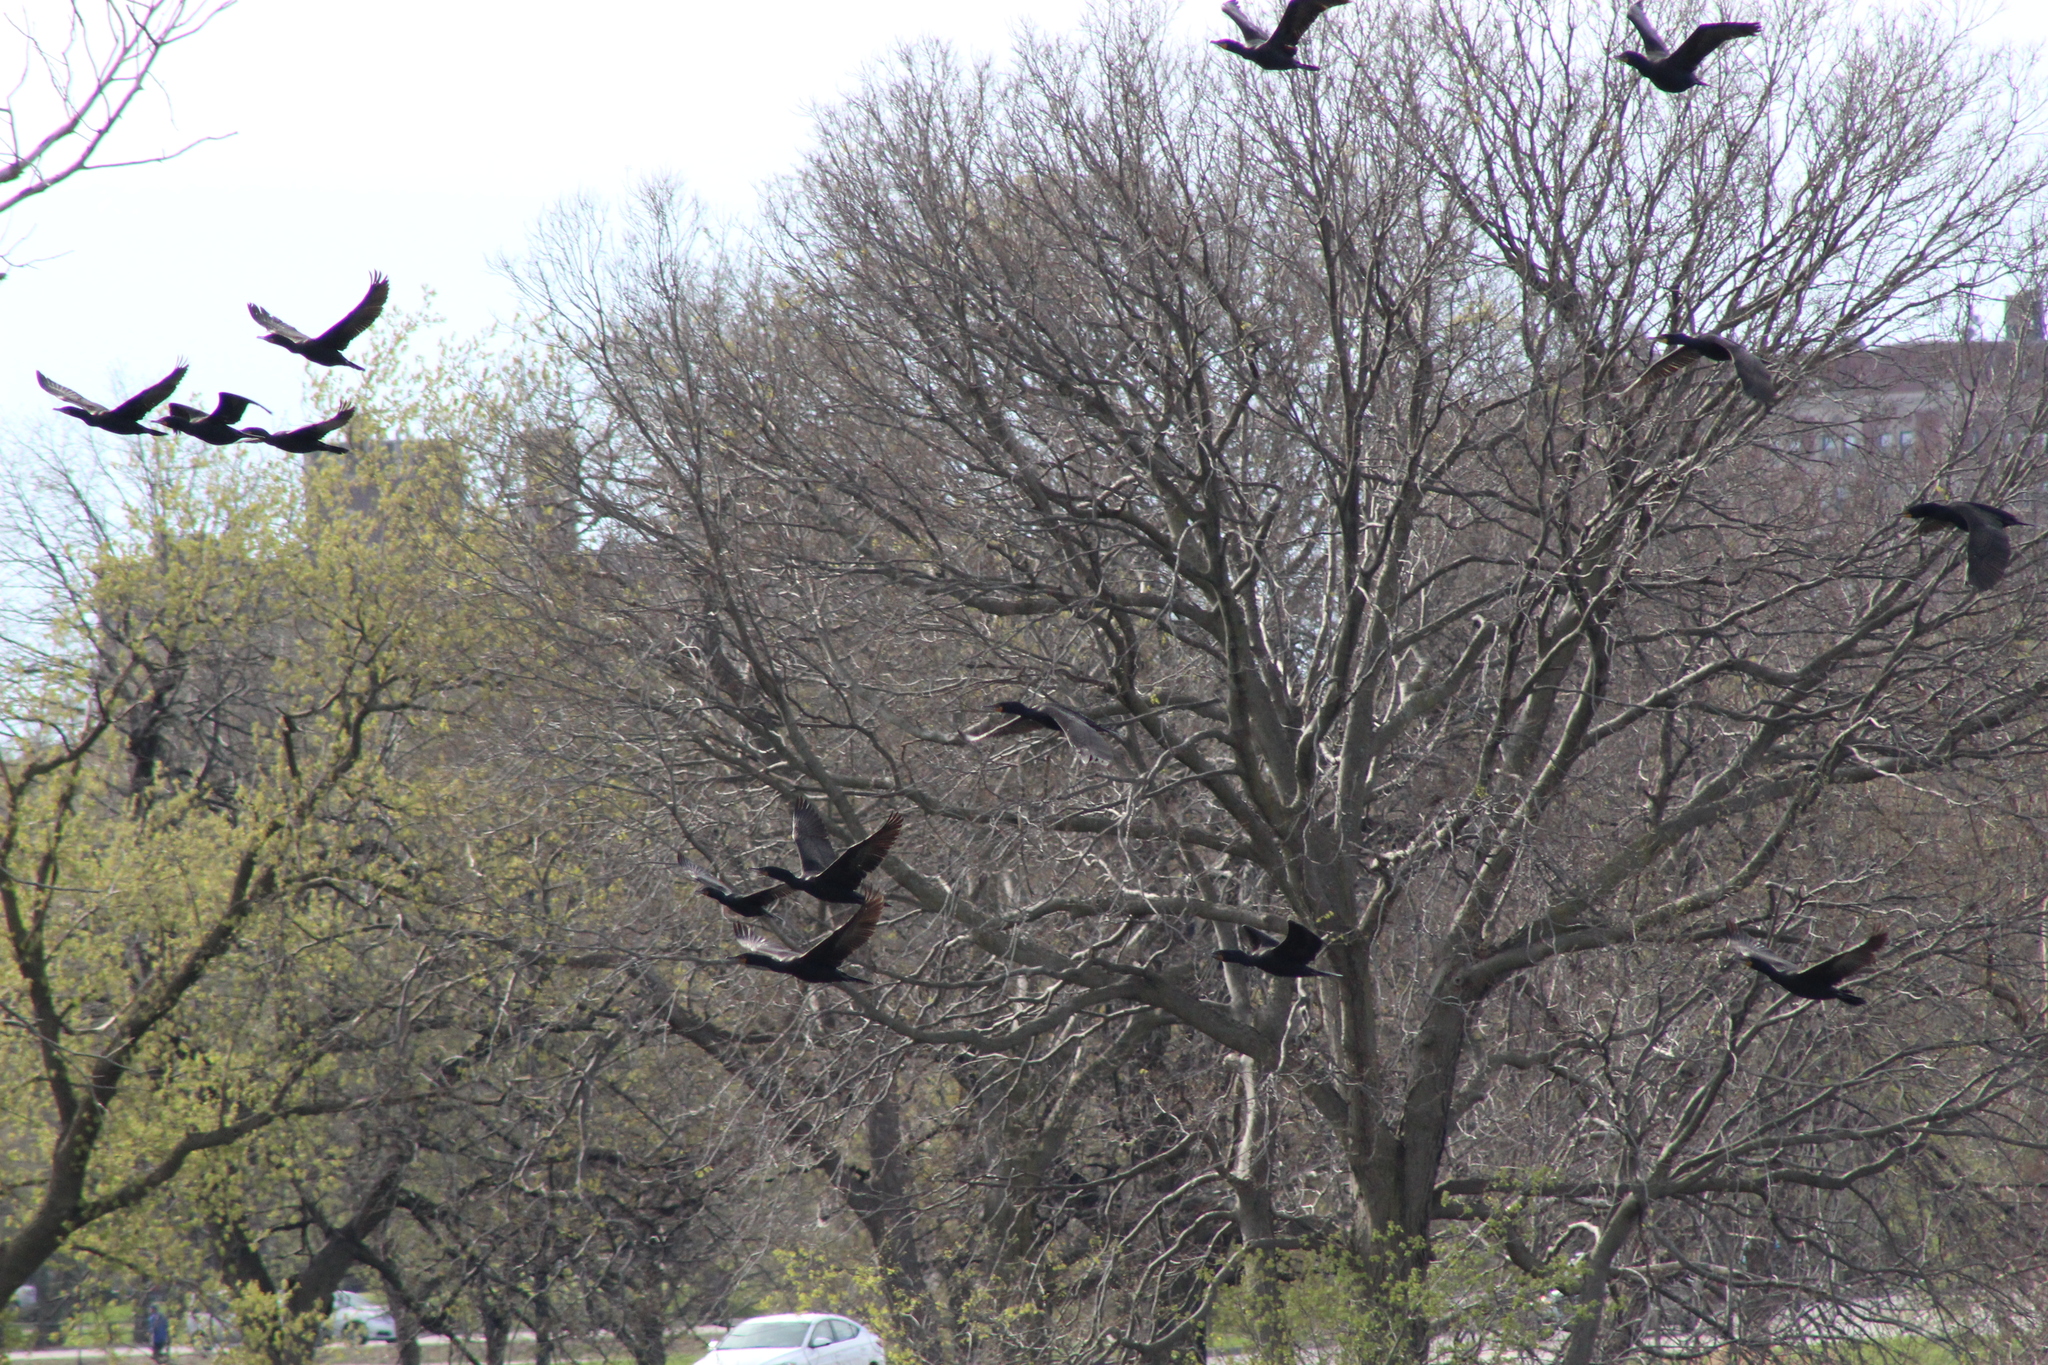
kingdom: Animalia
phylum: Chordata
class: Aves
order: Suliformes
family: Phalacrocoracidae
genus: Phalacrocorax
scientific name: Phalacrocorax auritus
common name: Double-crested cormorant
